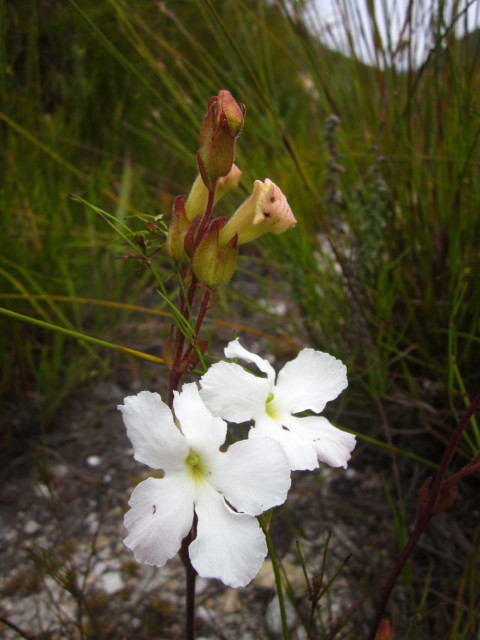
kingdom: Plantae
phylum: Tracheophyta
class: Magnoliopsida
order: Lamiales
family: Orobanchaceae
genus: Harveya
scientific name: Harveya capensis
